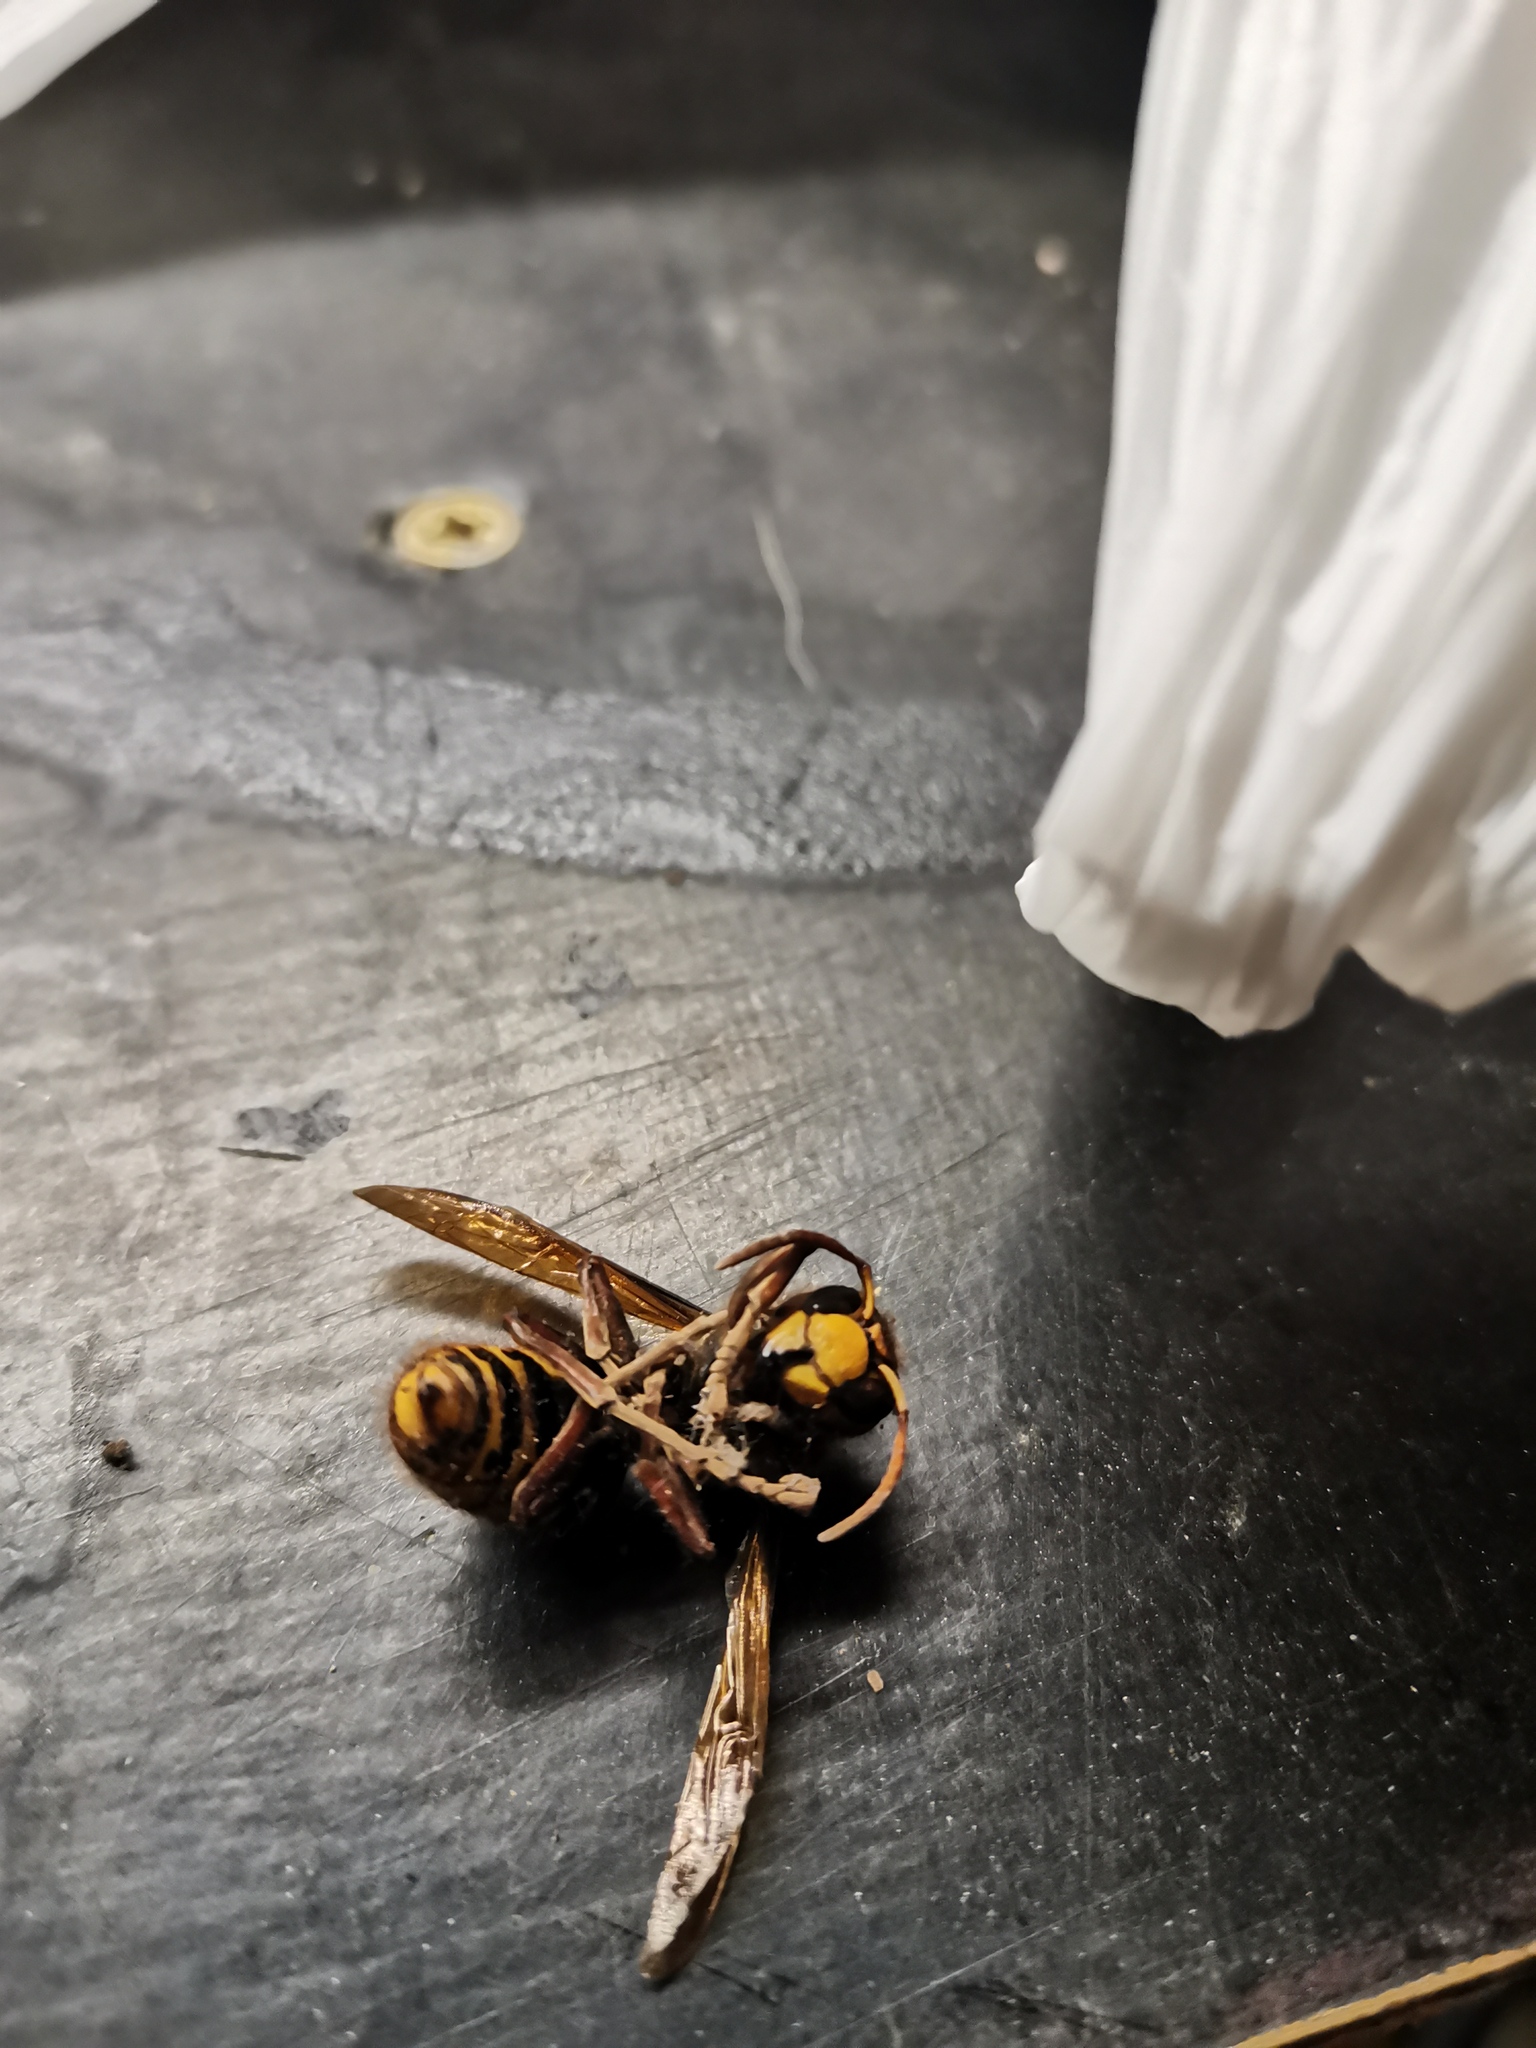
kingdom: Animalia
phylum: Arthropoda
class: Insecta
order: Hymenoptera
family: Vespidae
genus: Vespa
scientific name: Vespa crabro
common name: Hornet
